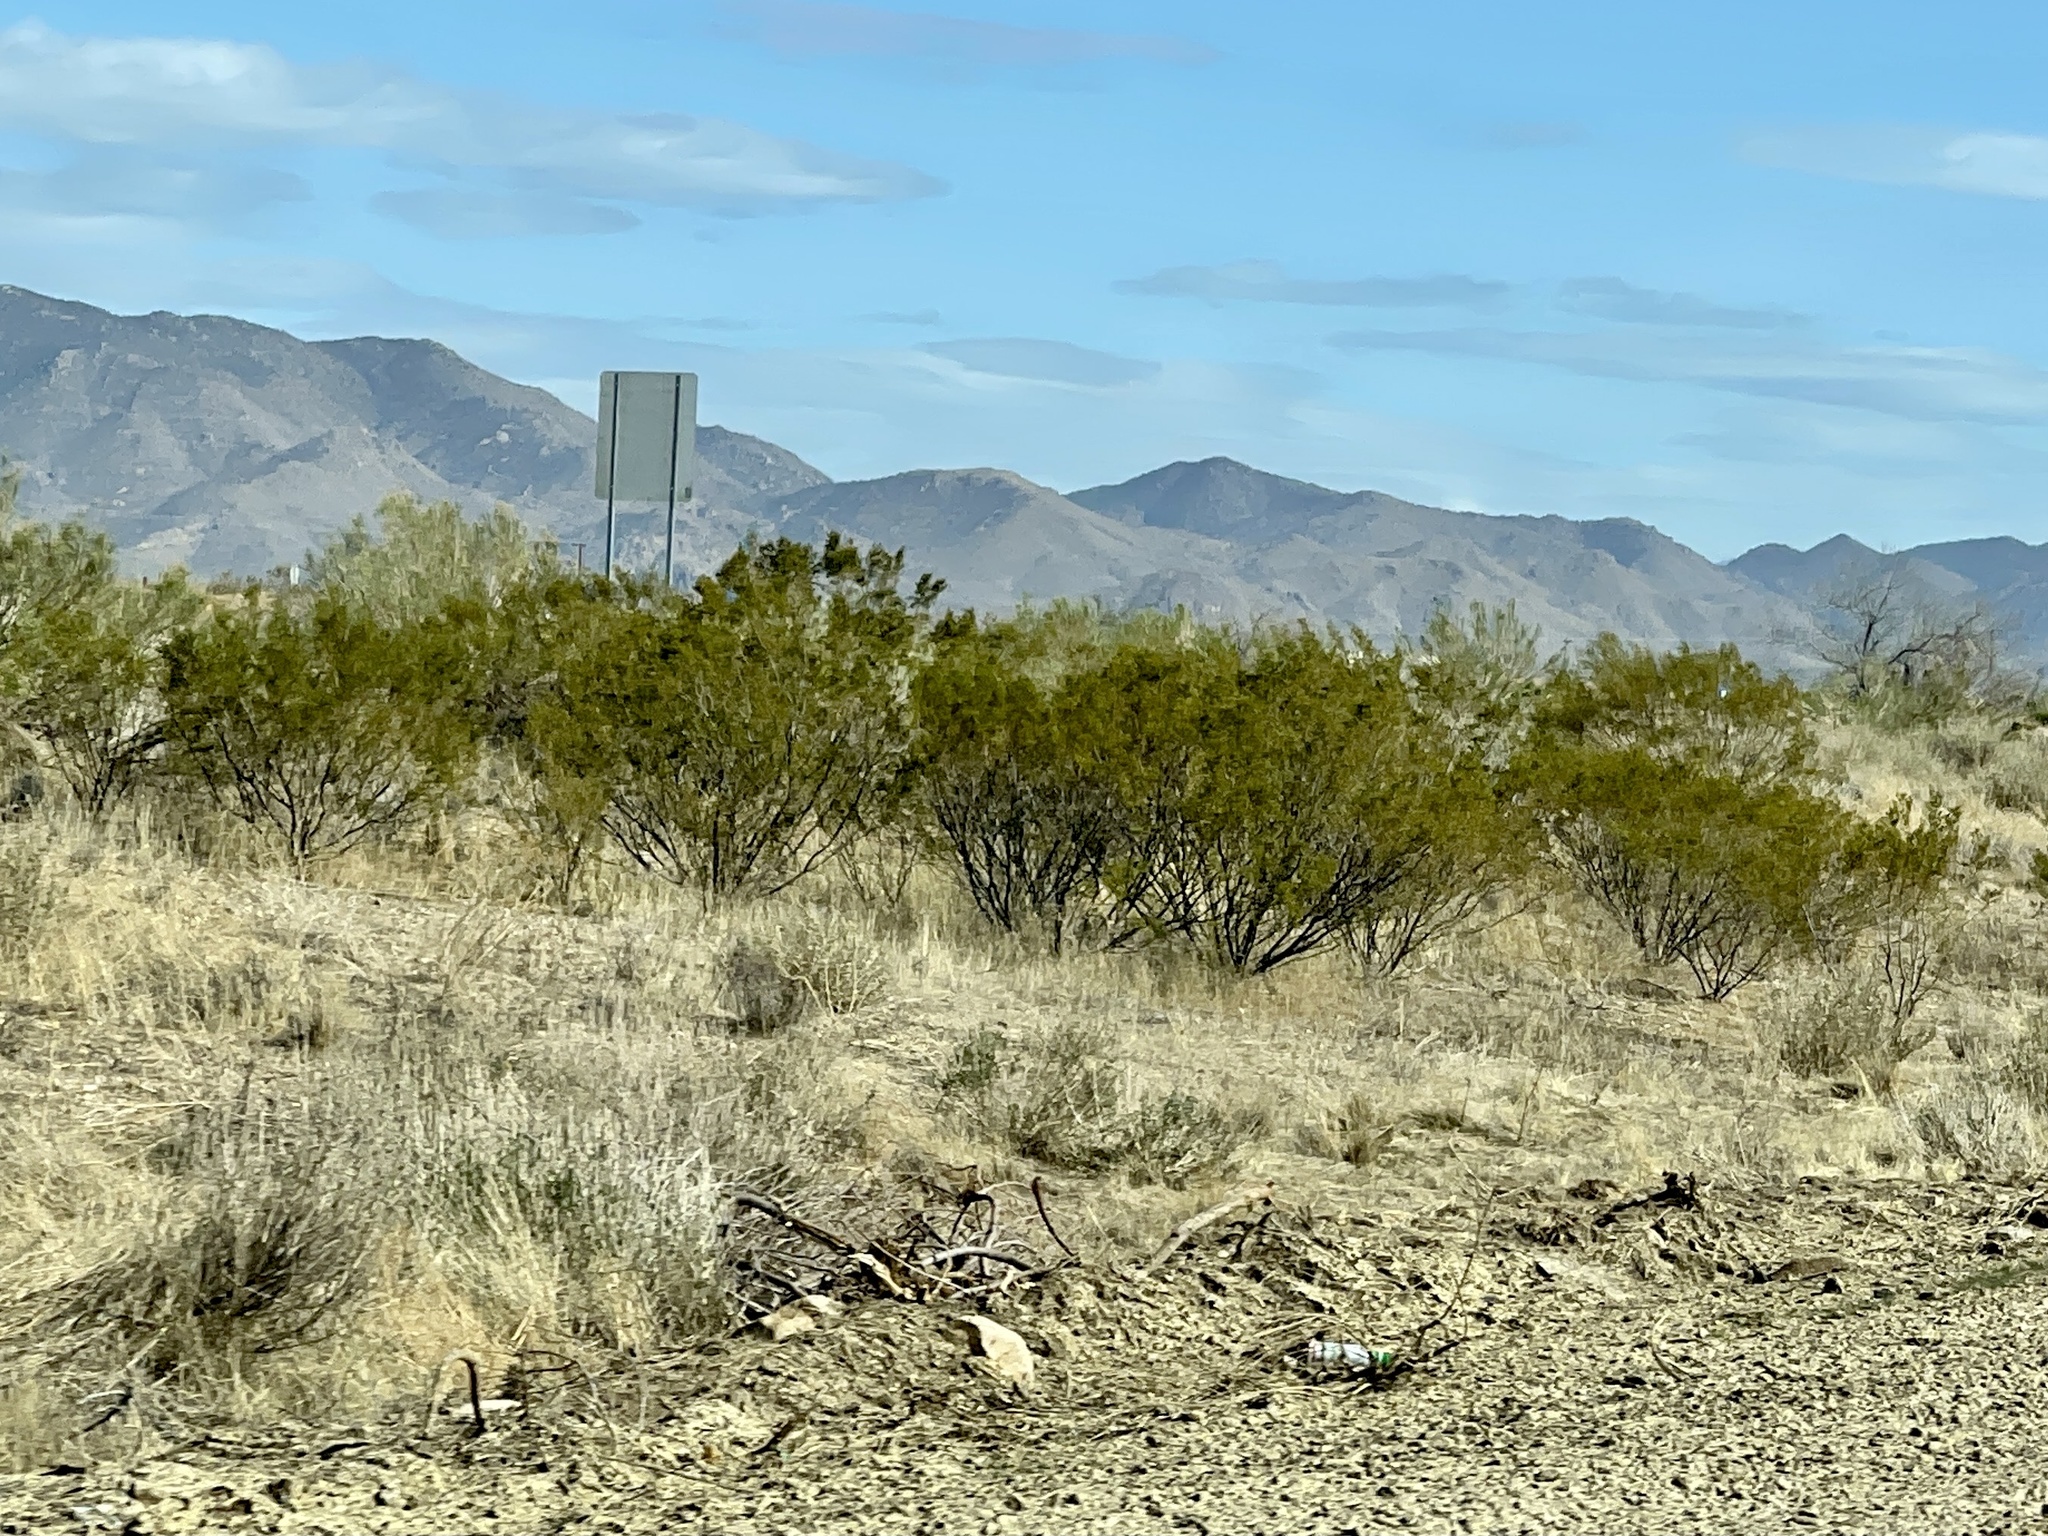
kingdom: Plantae
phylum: Tracheophyta
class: Magnoliopsida
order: Zygophyllales
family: Zygophyllaceae
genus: Larrea
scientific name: Larrea tridentata
